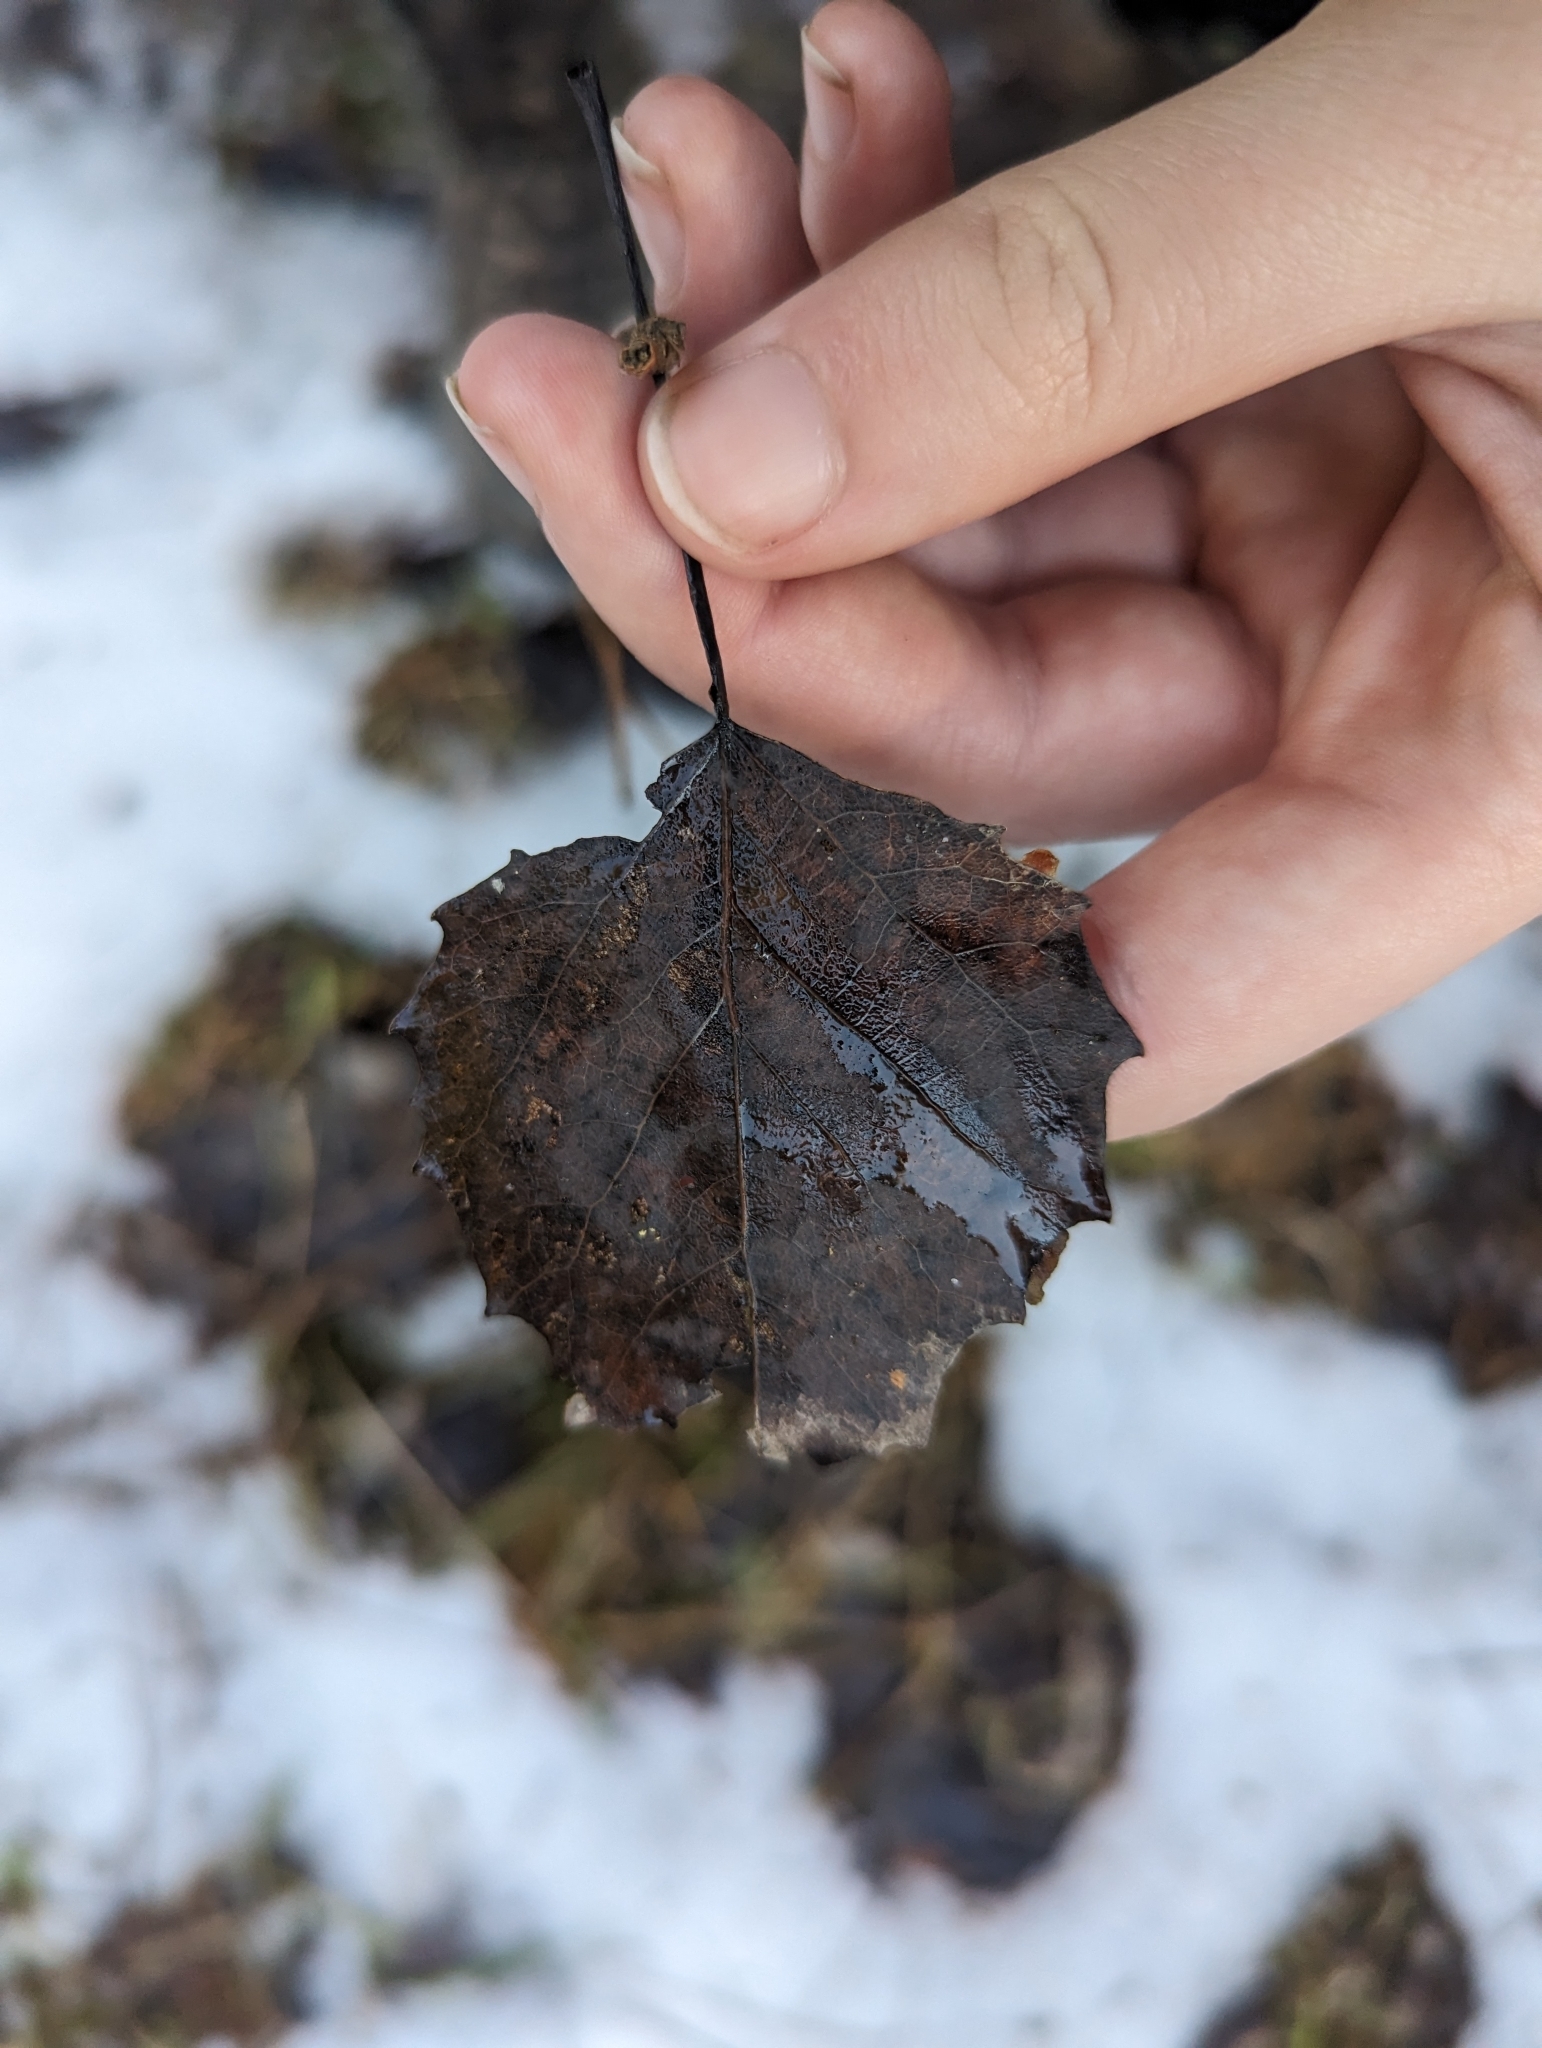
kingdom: Plantae
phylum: Tracheophyta
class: Magnoliopsida
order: Malpighiales
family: Salicaceae
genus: Populus
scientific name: Populus grandidentata
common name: Bigtooth aspen
